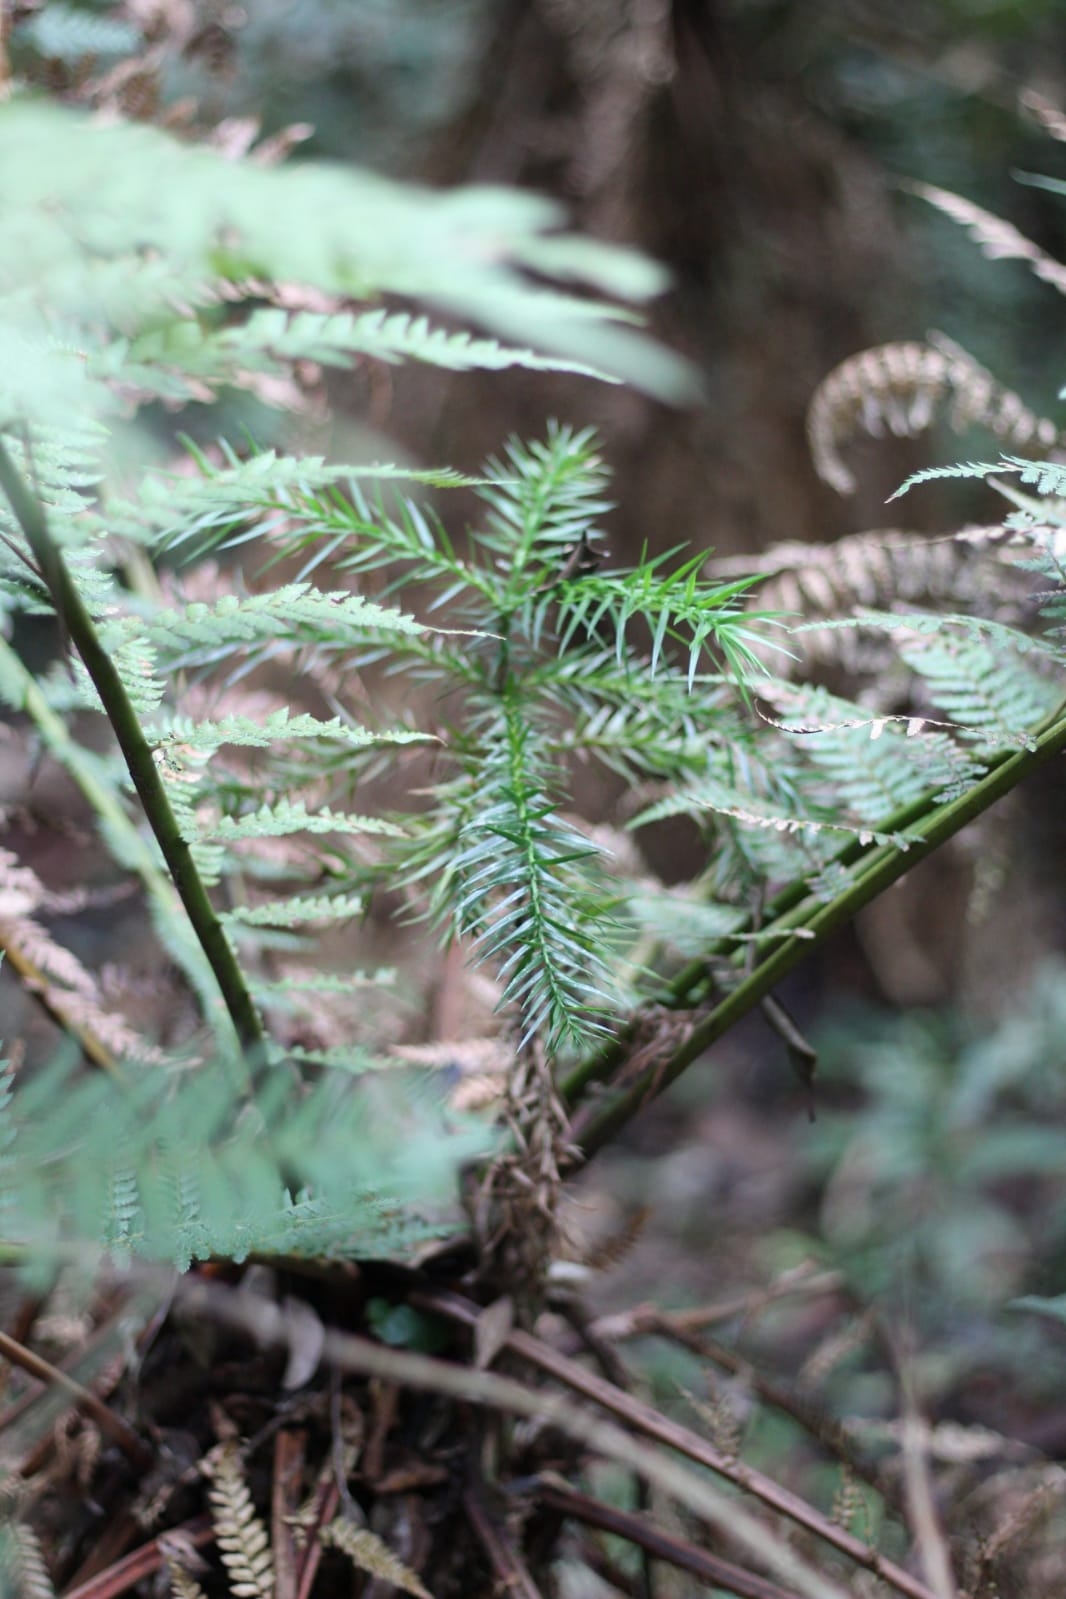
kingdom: Plantae
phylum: Tracheophyta
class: Polypodiopsida
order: Cyatheales
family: Dicksoniaceae
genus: Dicksonia
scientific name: Dicksonia sellowiana
